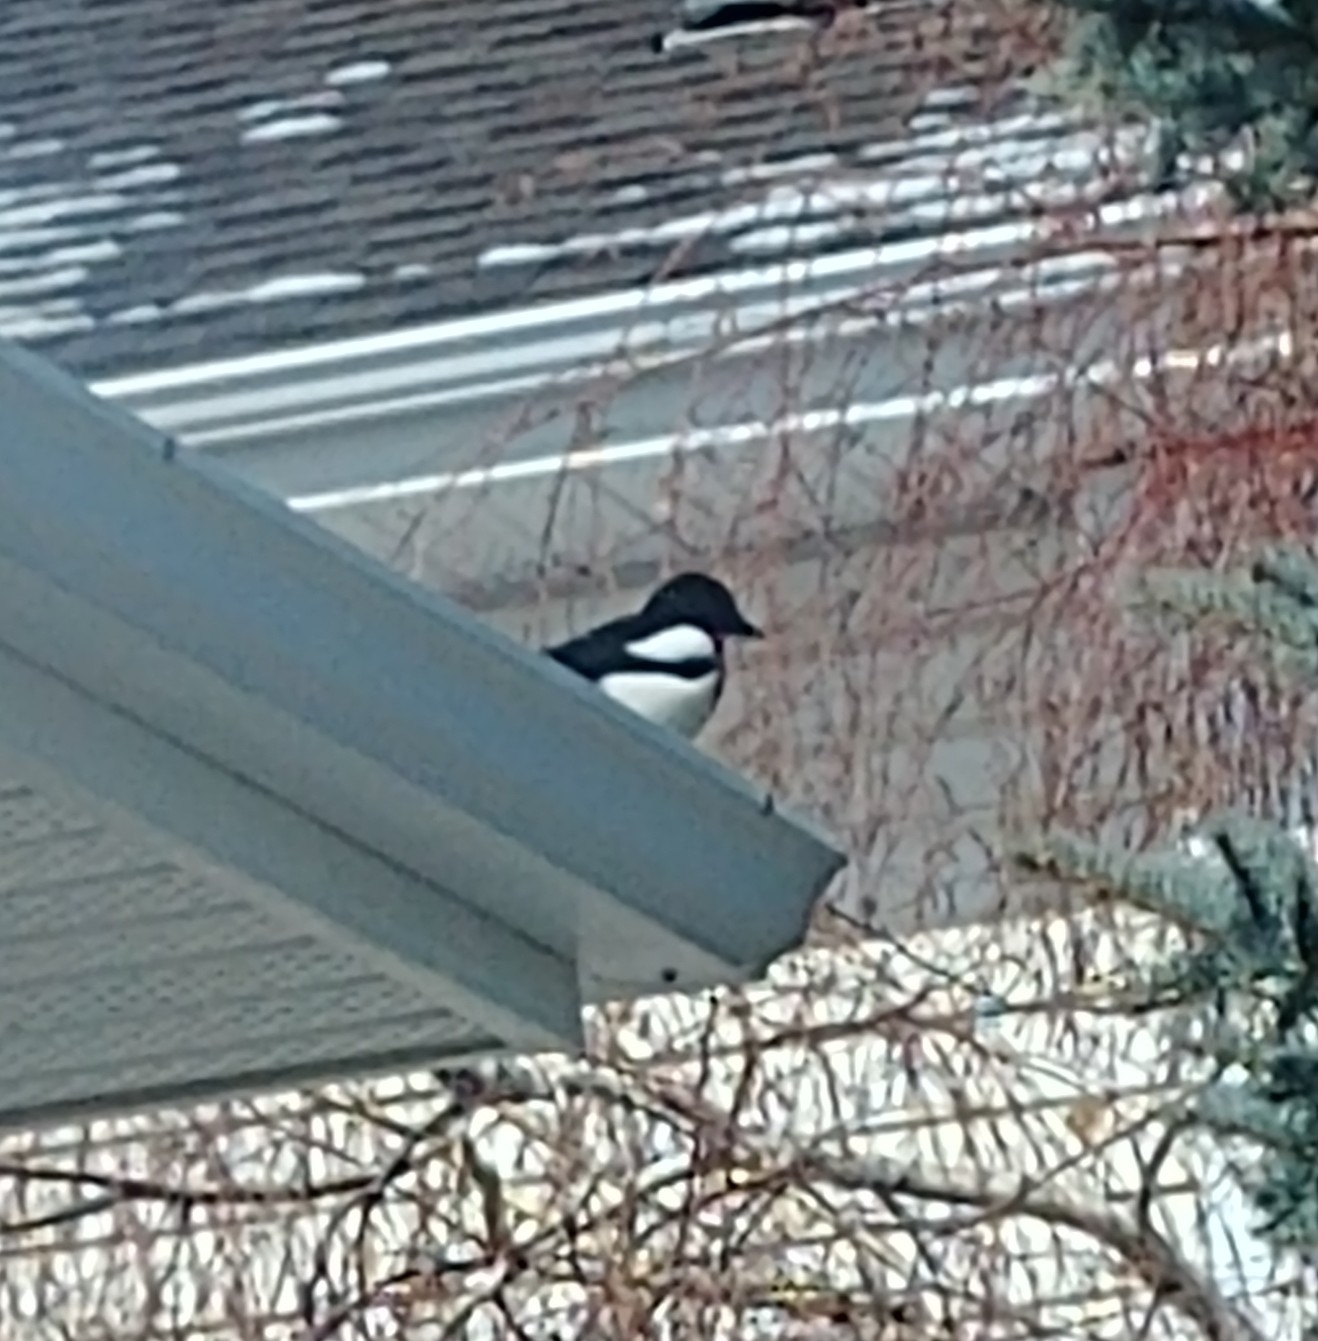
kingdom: Animalia
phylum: Chordata
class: Aves
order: Passeriformes
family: Corvidae
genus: Pica
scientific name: Pica hudsonia
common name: Black-billed magpie
